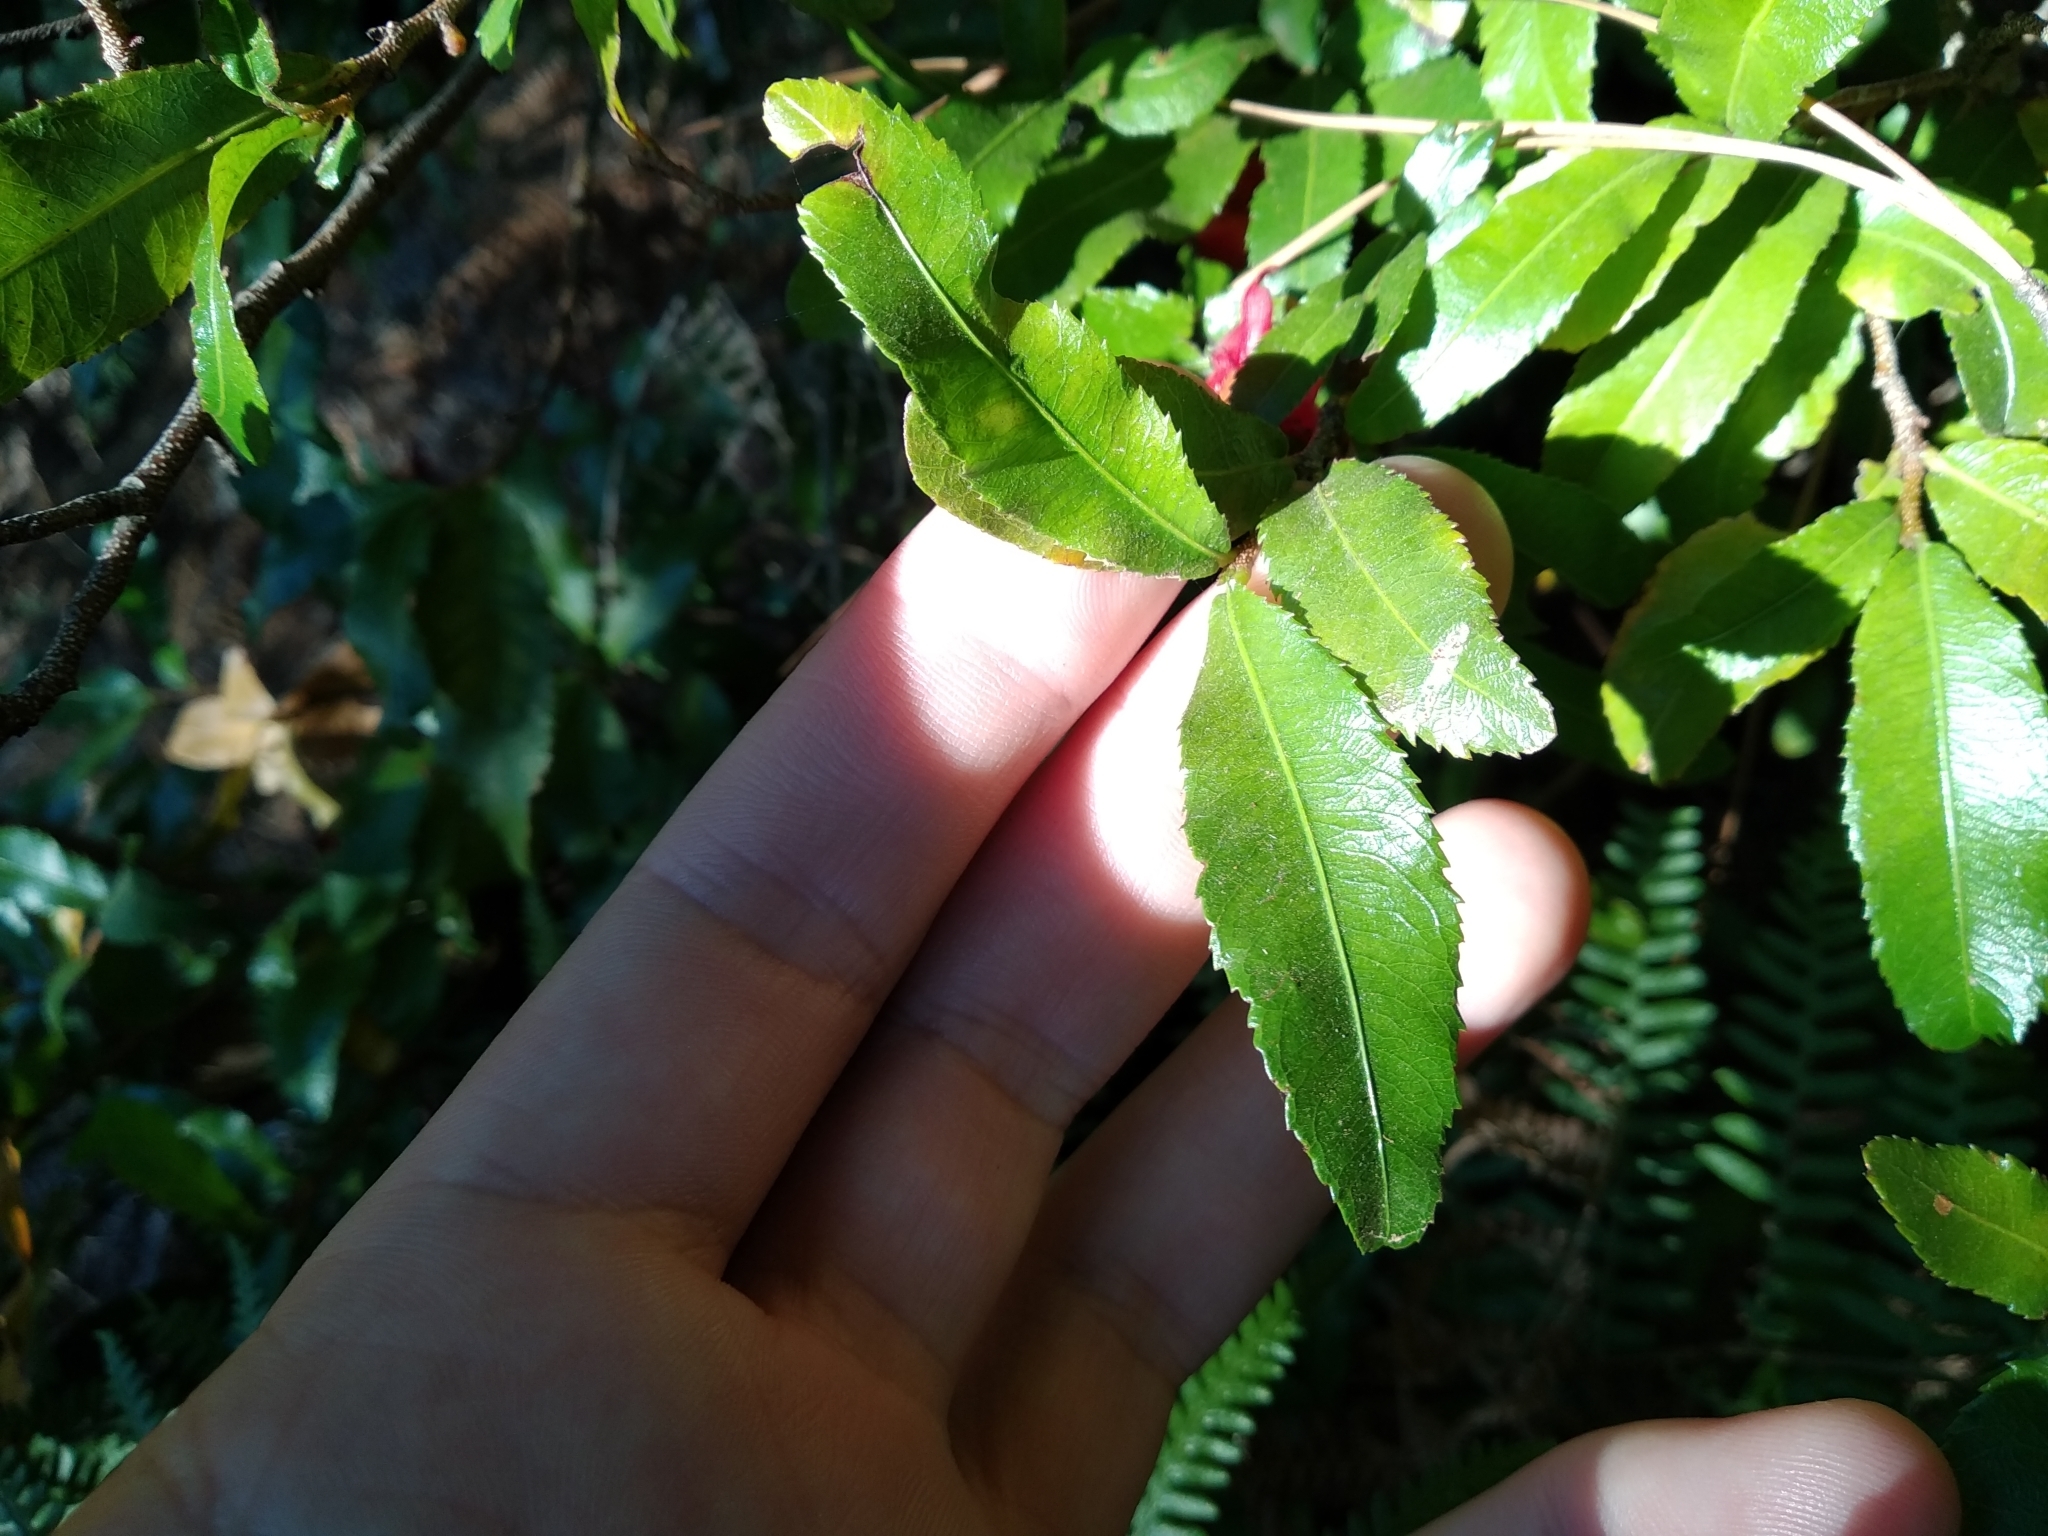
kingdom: Plantae
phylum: Tracheophyta
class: Magnoliopsida
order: Malpighiales
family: Ochnaceae
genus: Ochna
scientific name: Ochna serrulata
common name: Mickey mouse plant
